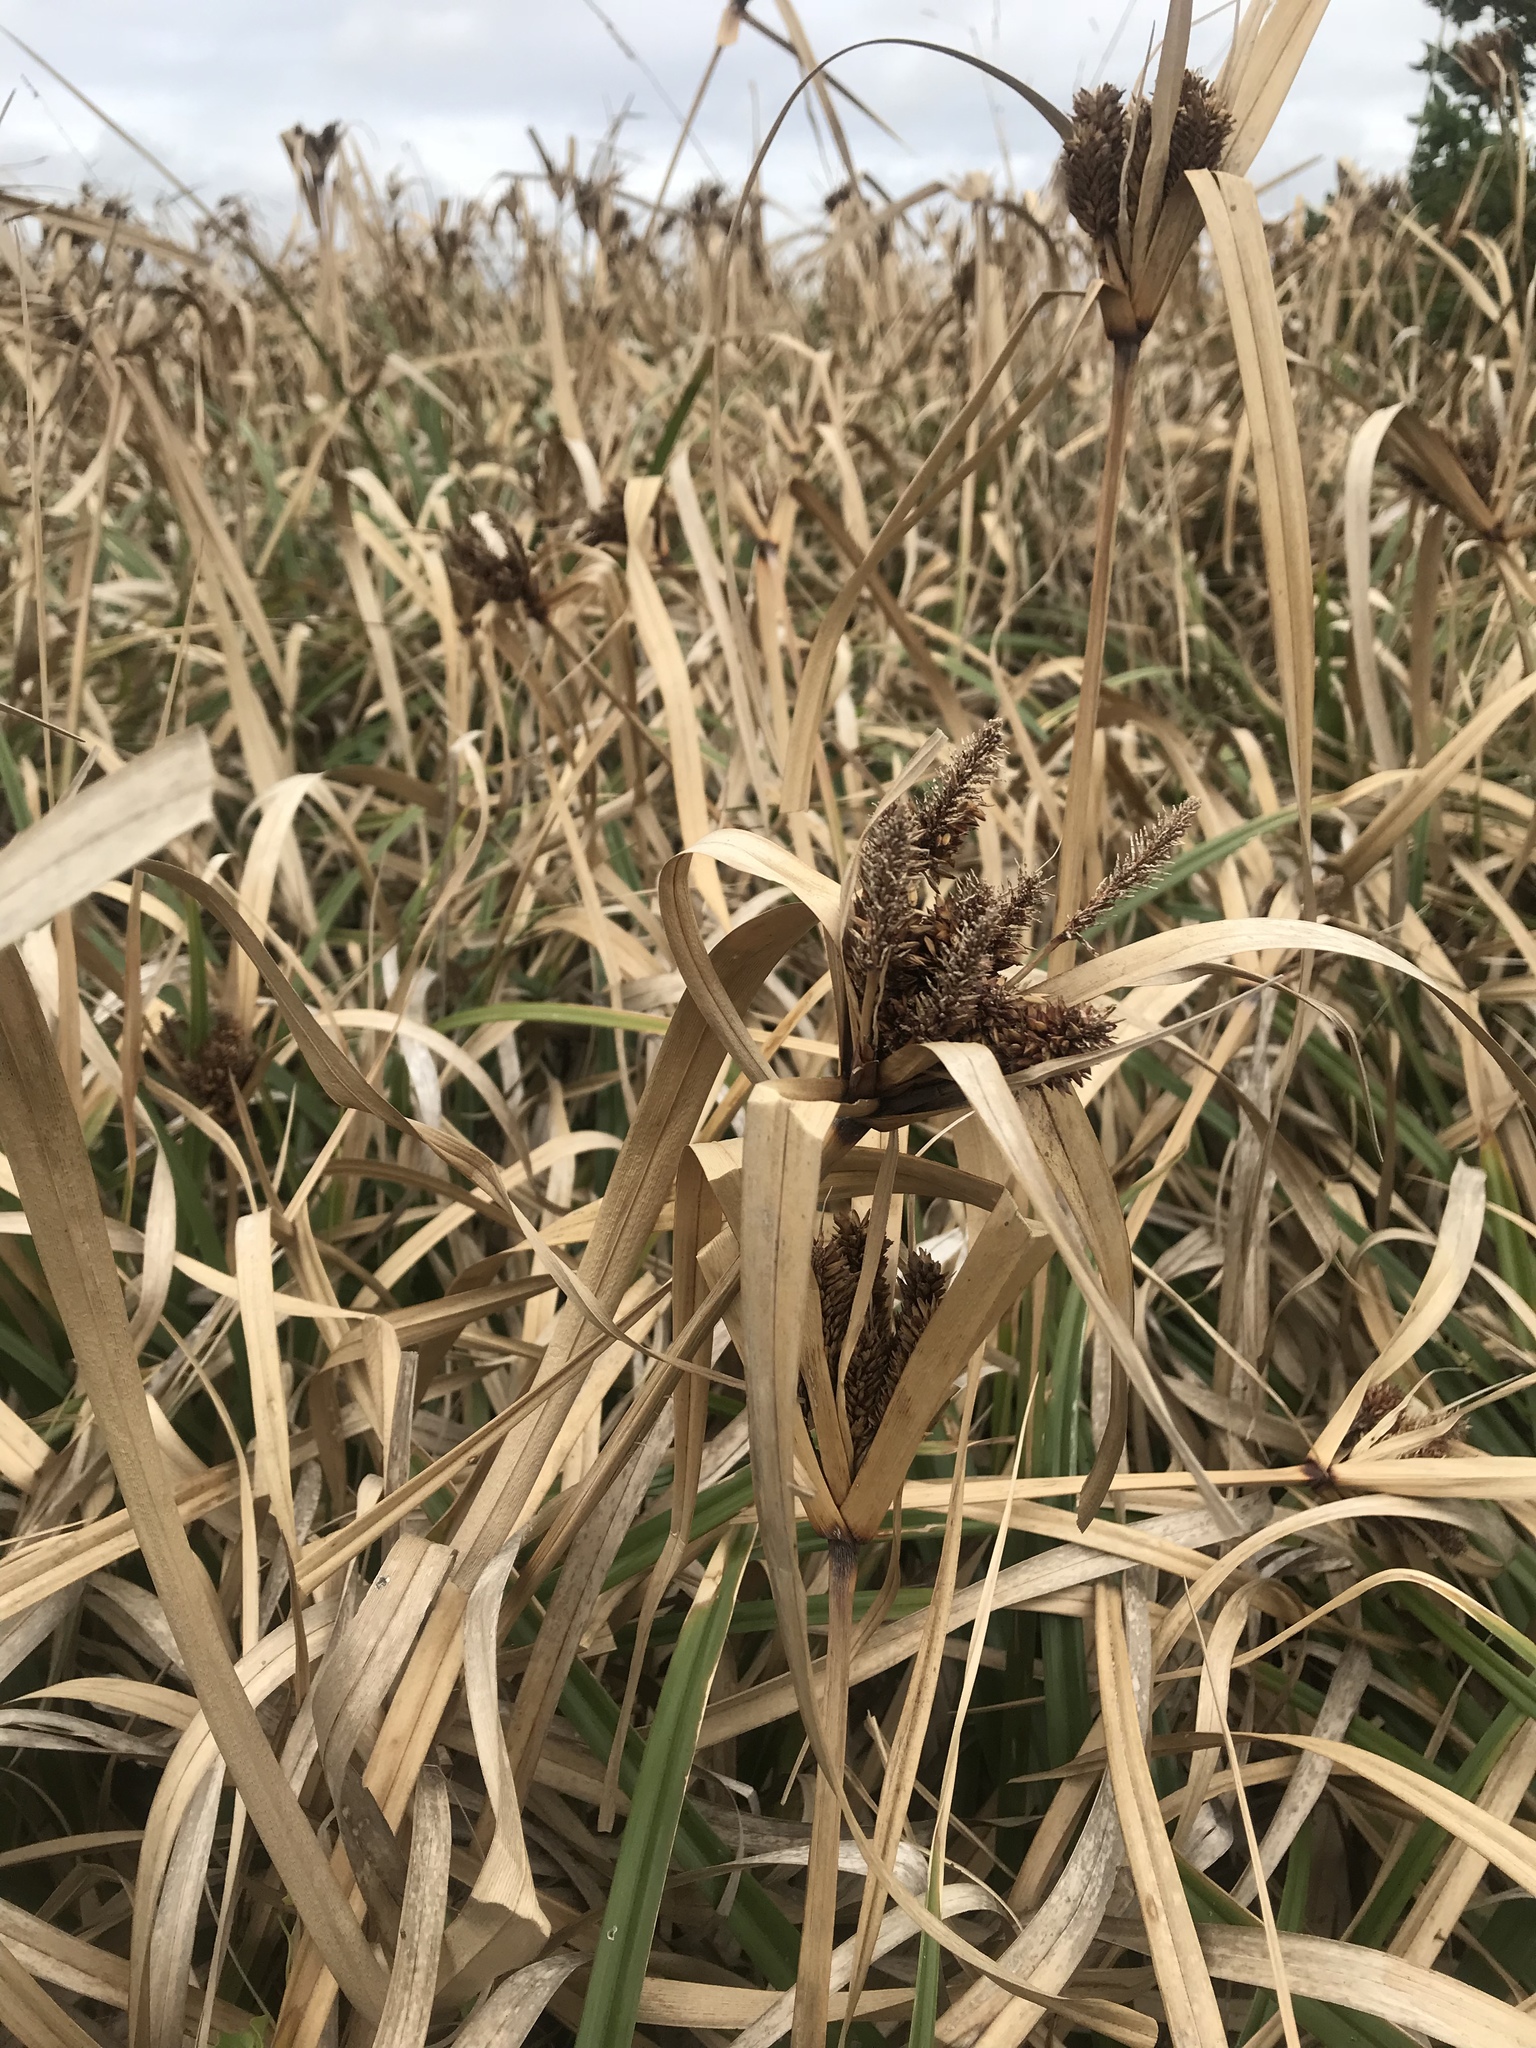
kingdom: Plantae
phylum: Tracheophyta
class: Liliopsida
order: Poales
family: Cyperaceae
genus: Cyperus
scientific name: Cyperus ustulatus
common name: Giant umbrella-sedge
